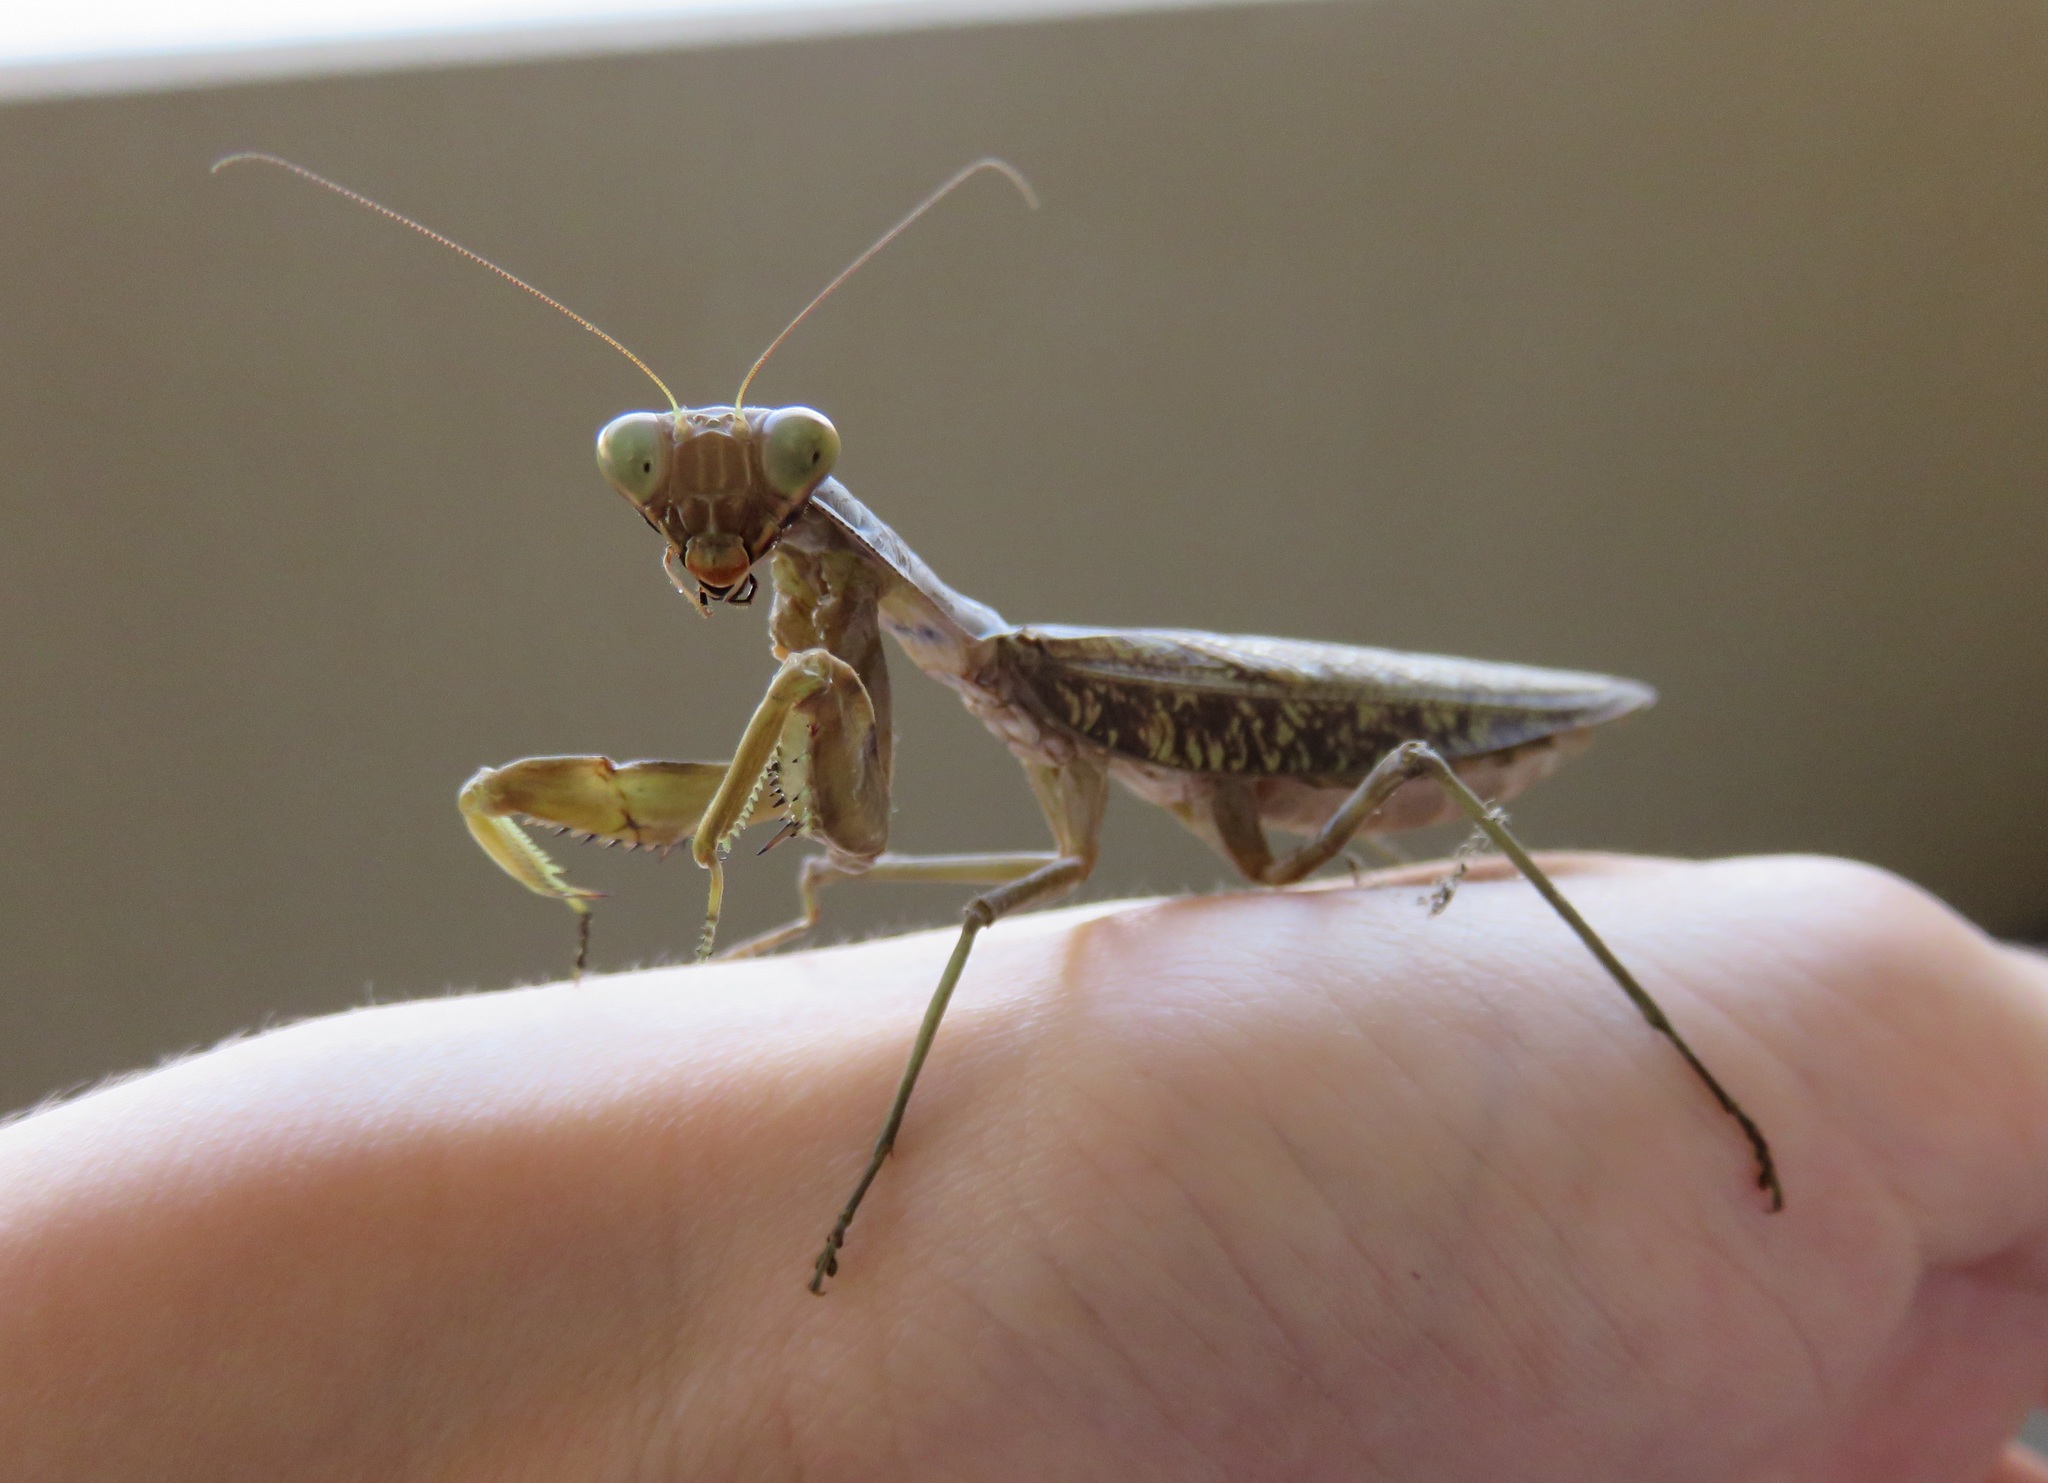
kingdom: Animalia
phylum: Arthropoda
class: Insecta
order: Mantodea
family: Mantidae
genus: Hierodula
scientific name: Hierodula patellifera
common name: Asian mantis
